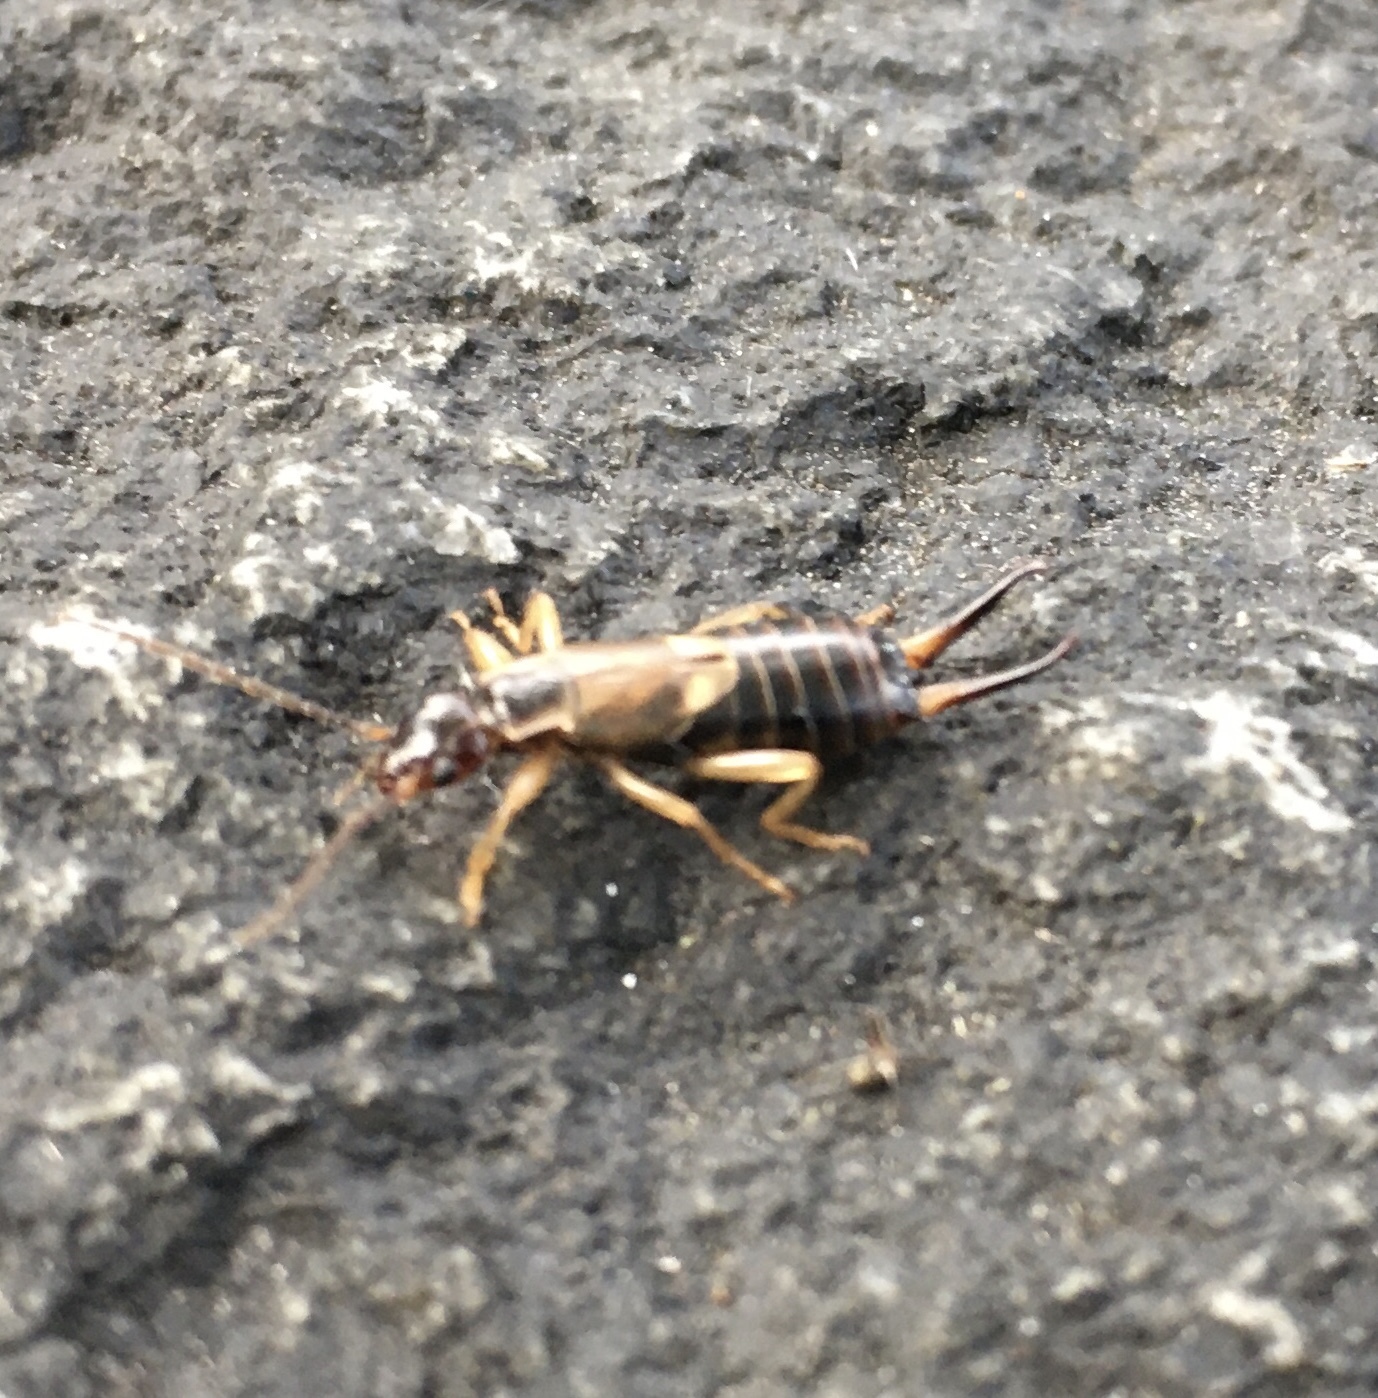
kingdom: Animalia
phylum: Arthropoda
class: Insecta
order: Dermaptera
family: Forficulidae
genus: Forficula
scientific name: Forficula
